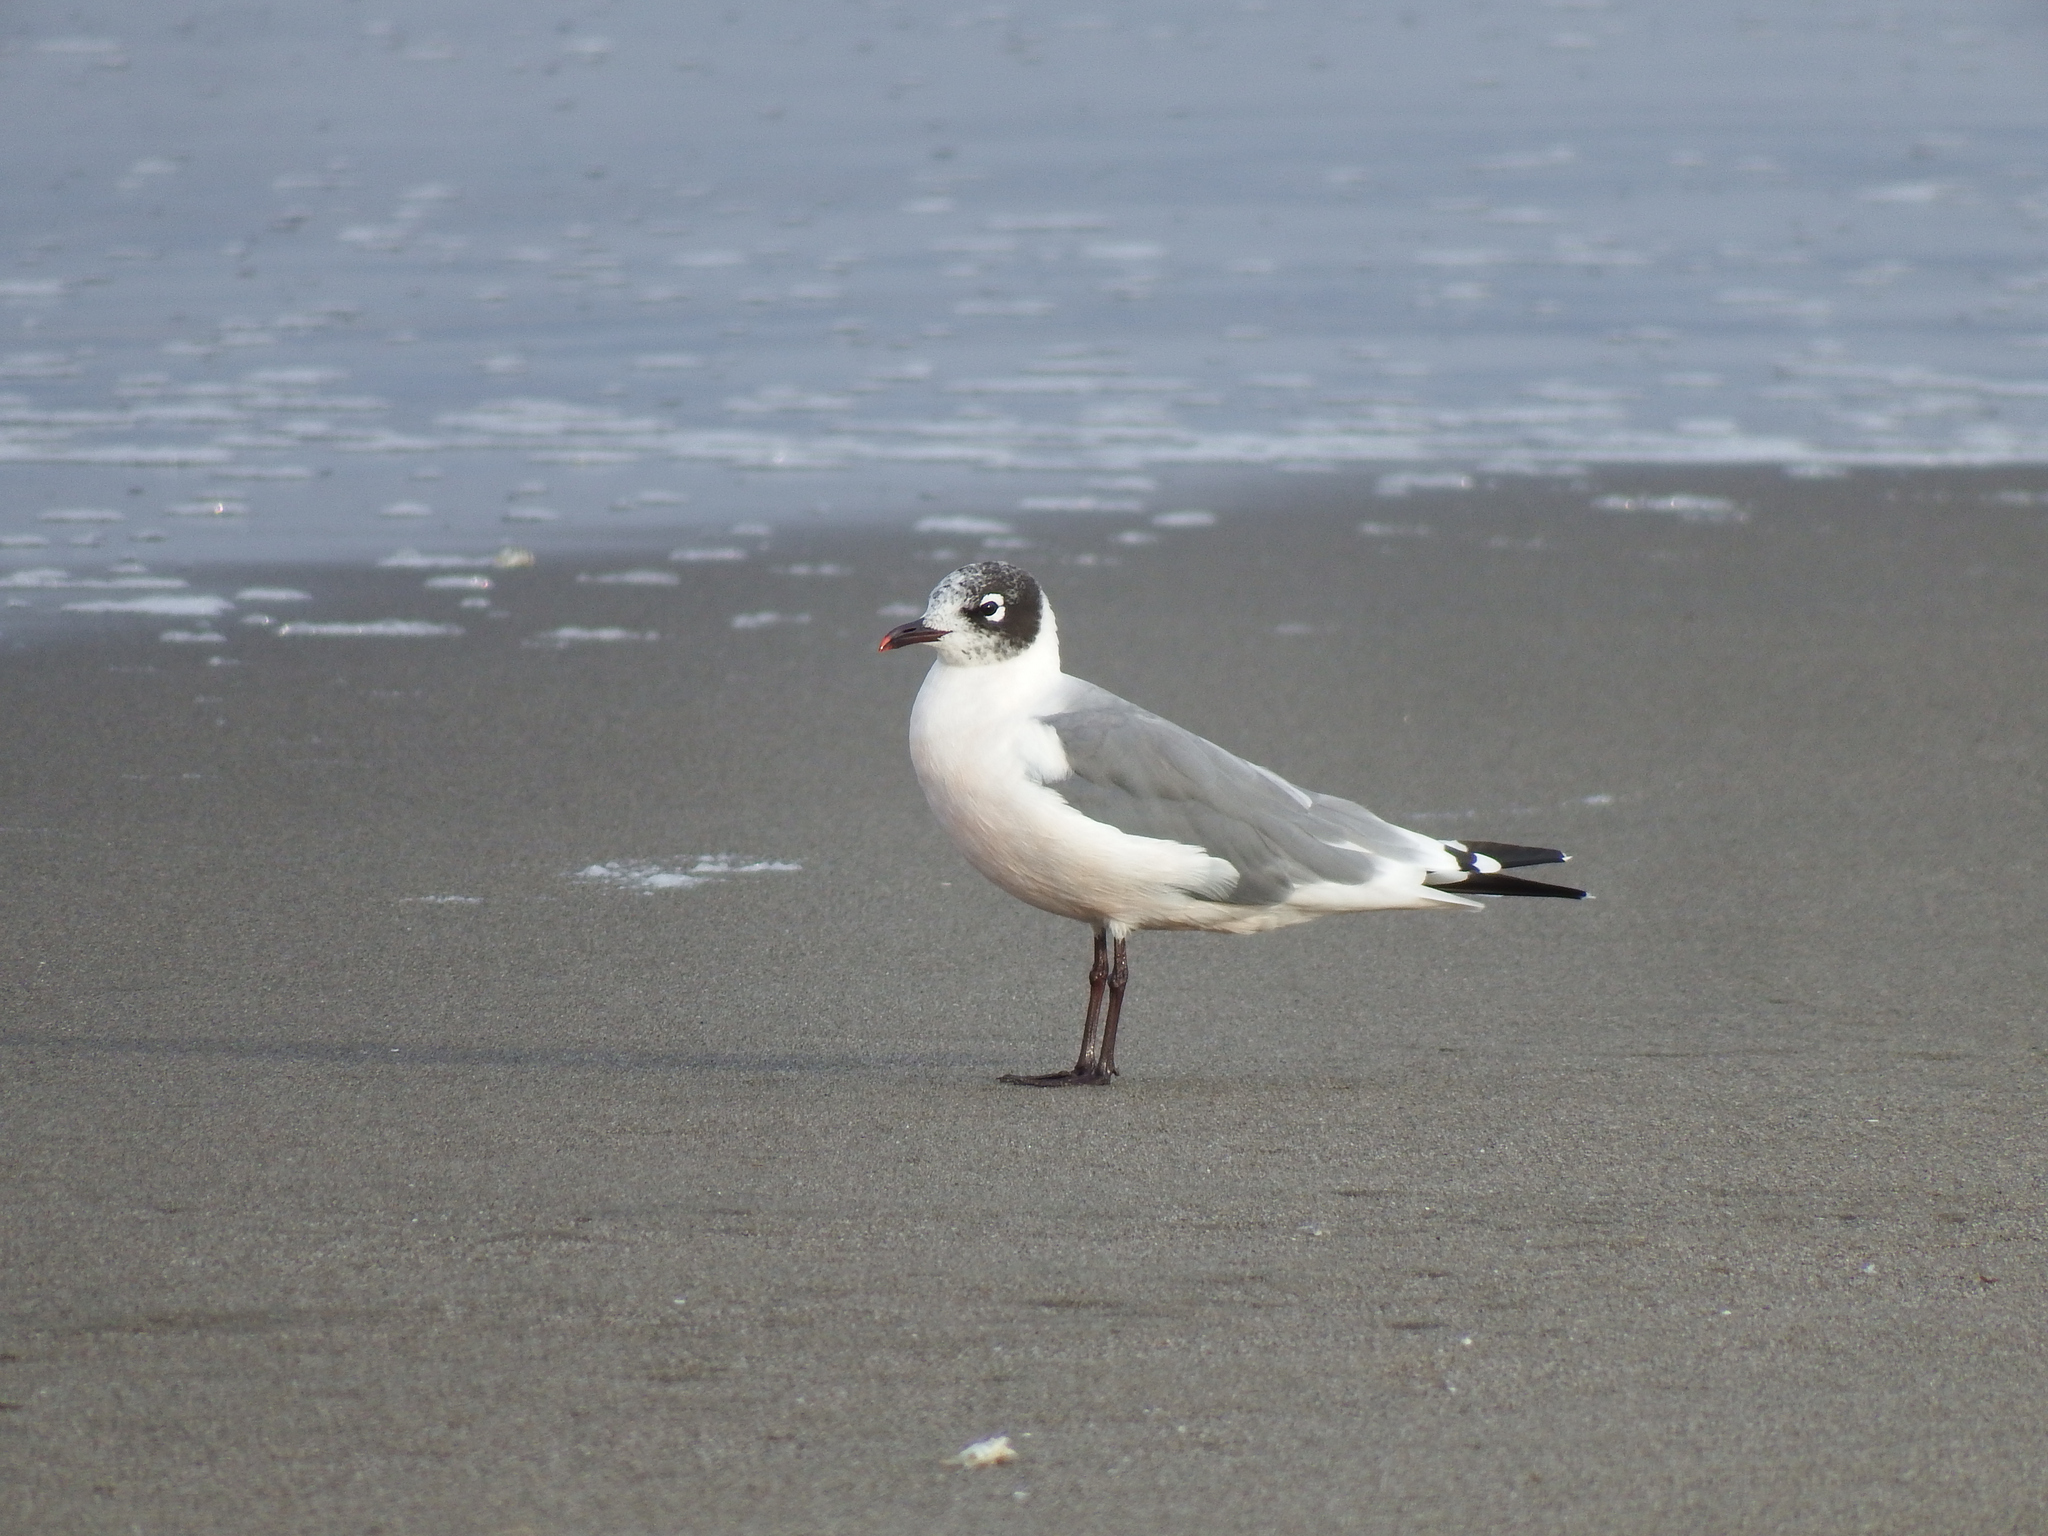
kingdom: Animalia
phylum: Chordata
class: Aves
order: Charadriiformes
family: Laridae
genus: Leucophaeus
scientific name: Leucophaeus pipixcan
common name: Franklin's gull
